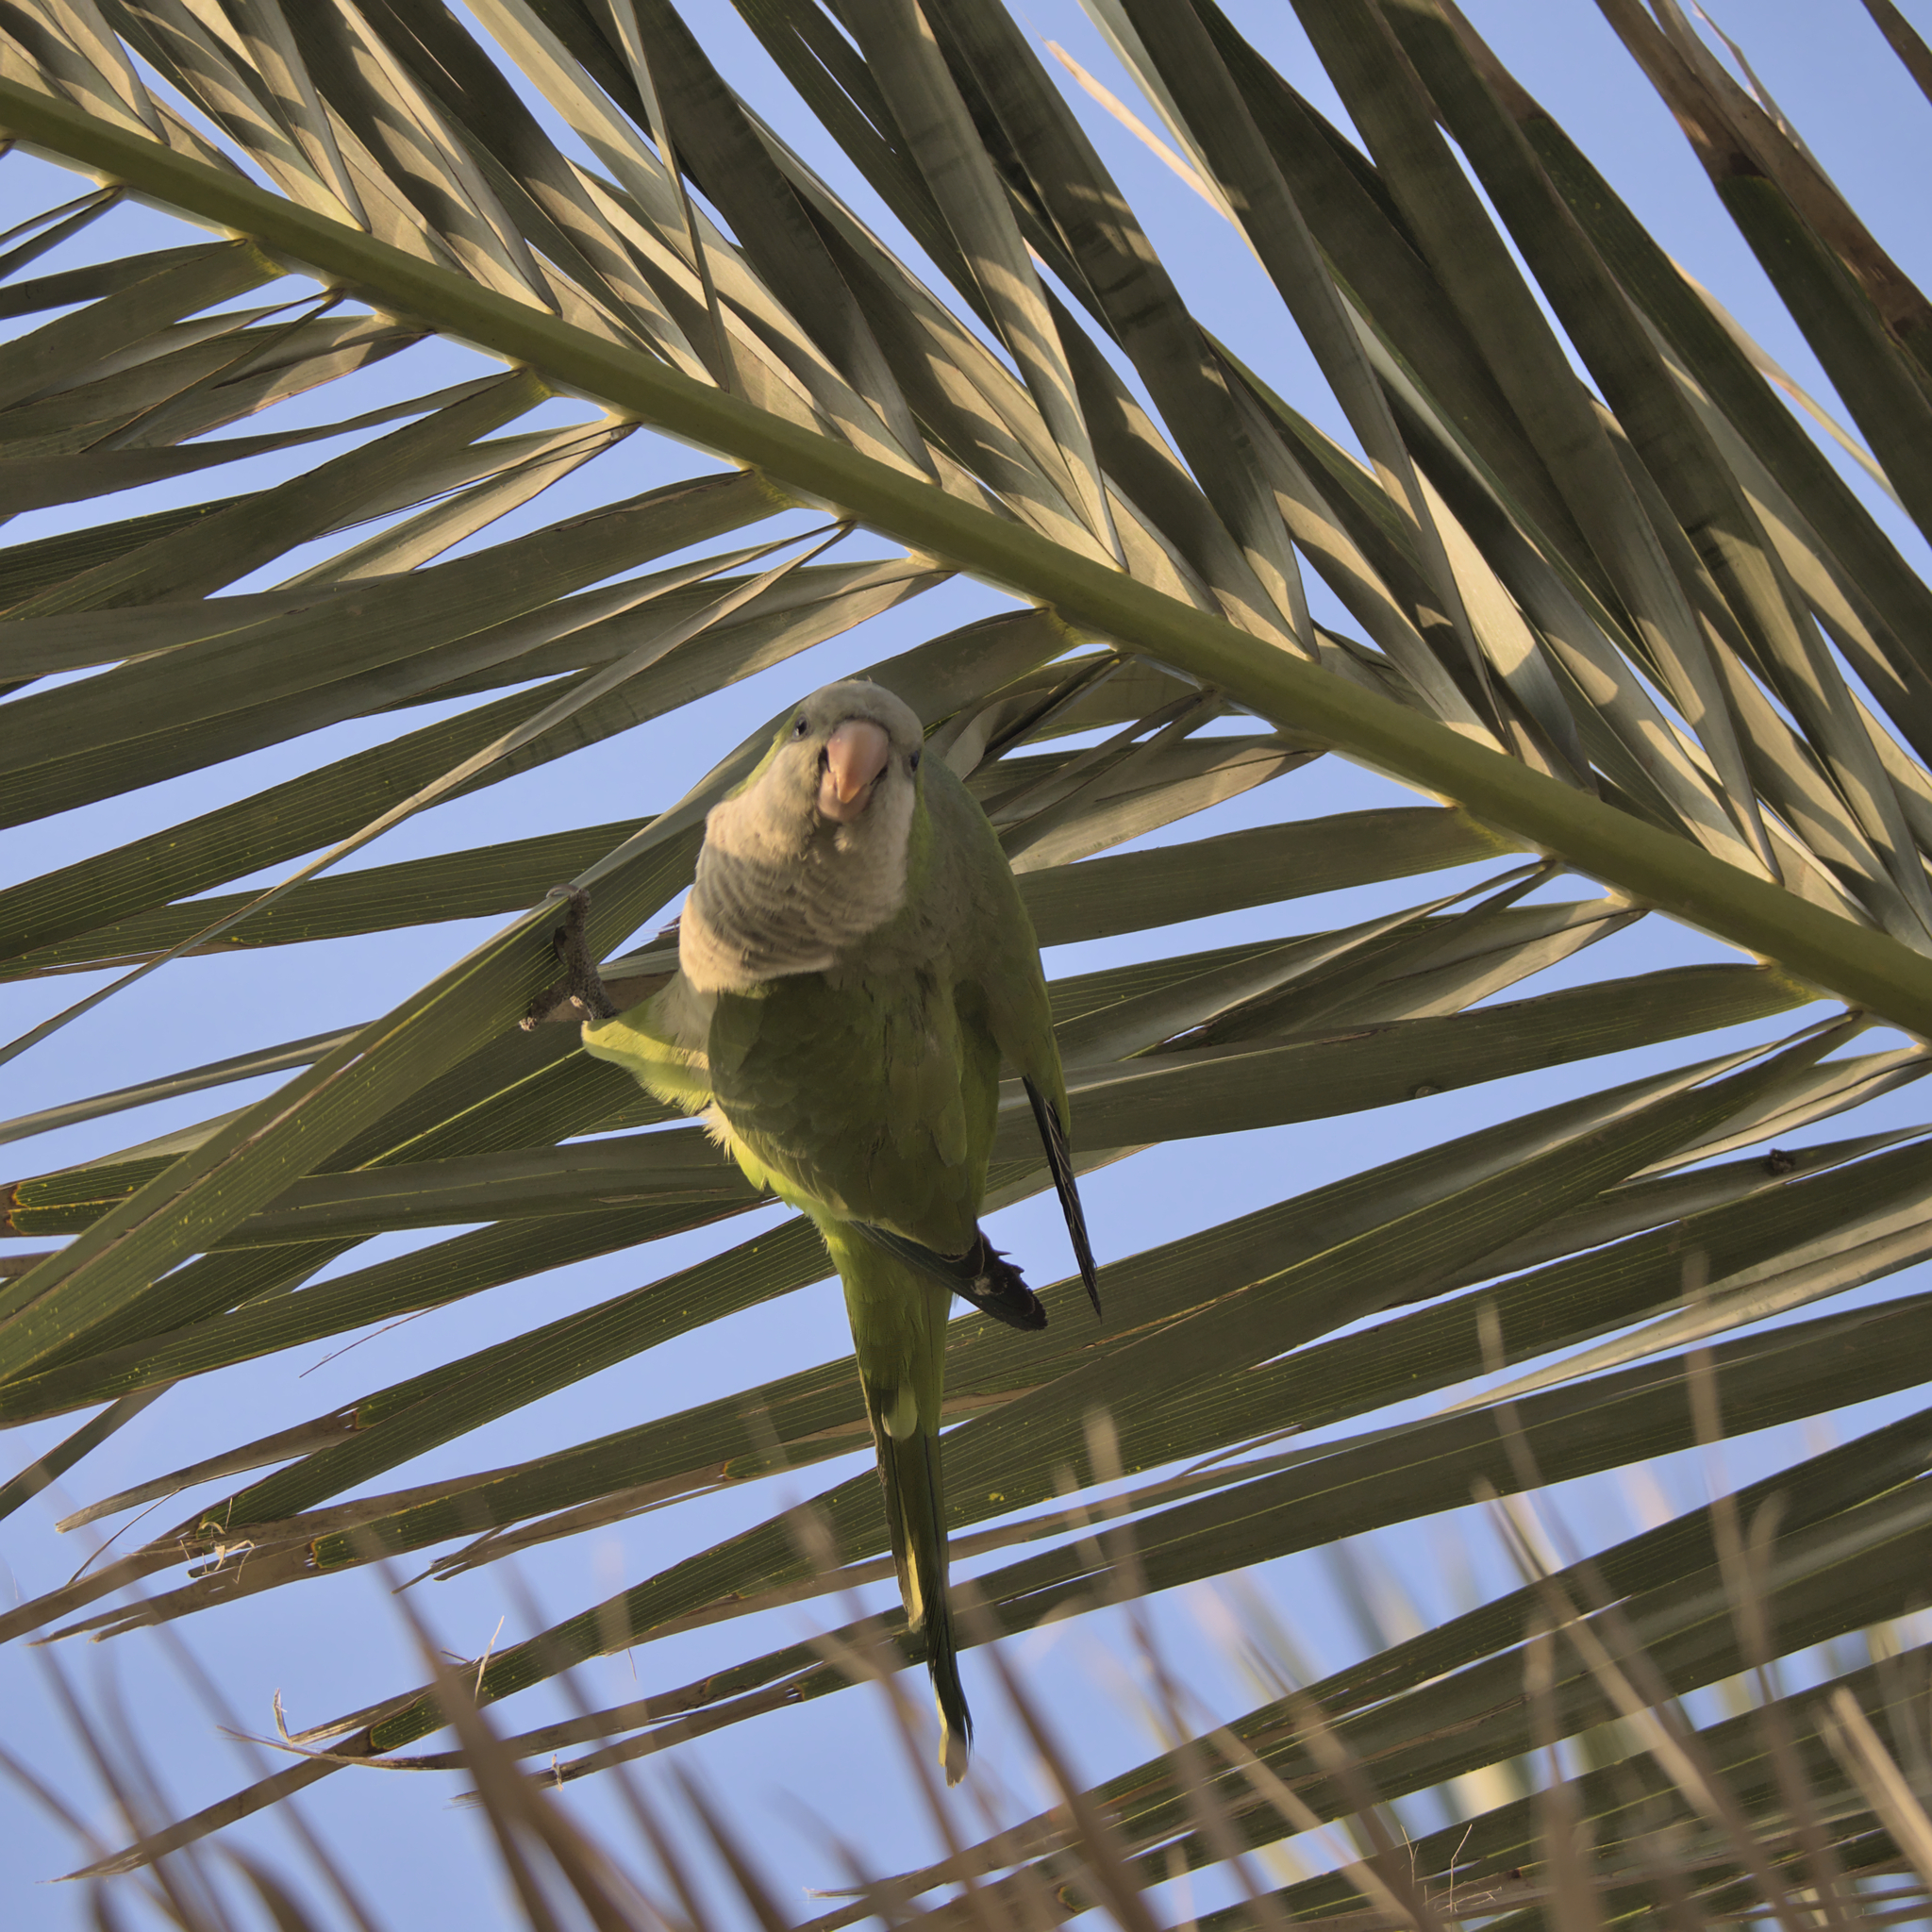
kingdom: Animalia
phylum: Chordata
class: Aves
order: Psittaciformes
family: Psittacidae
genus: Myiopsitta
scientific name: Myiopsitta monachus
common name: Monk parakeet
